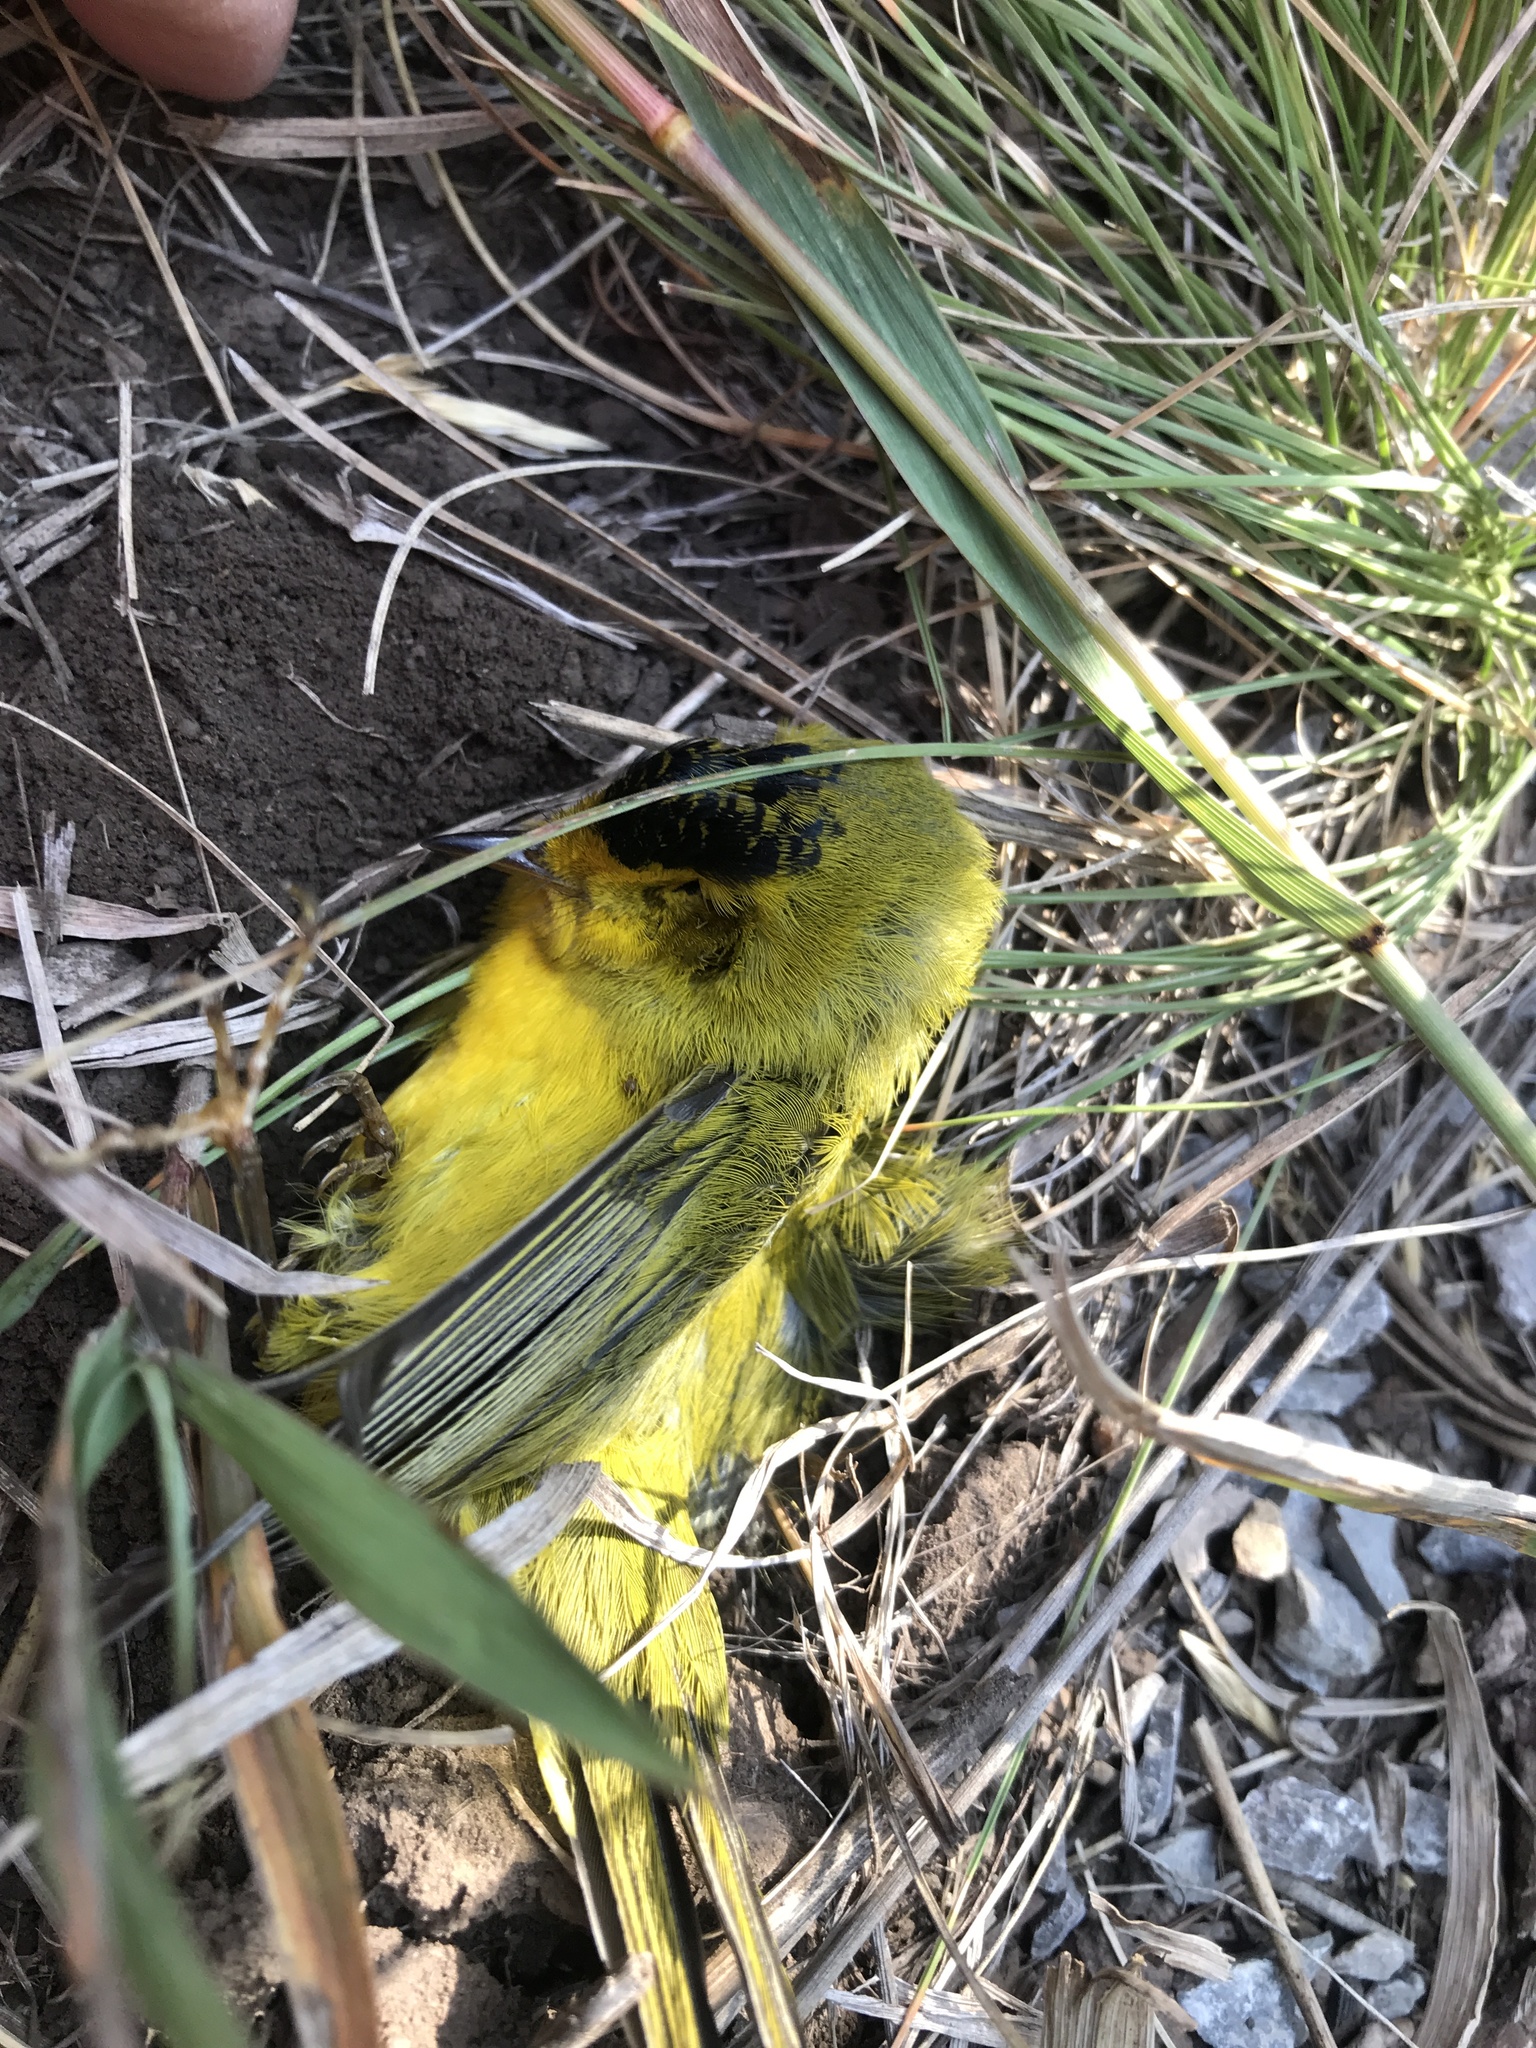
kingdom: Animalia
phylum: Chordata
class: Aves
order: Passeriformes
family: Parulidae
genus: Cardellina
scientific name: Cardellina pusilla
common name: Wilson's warbler
